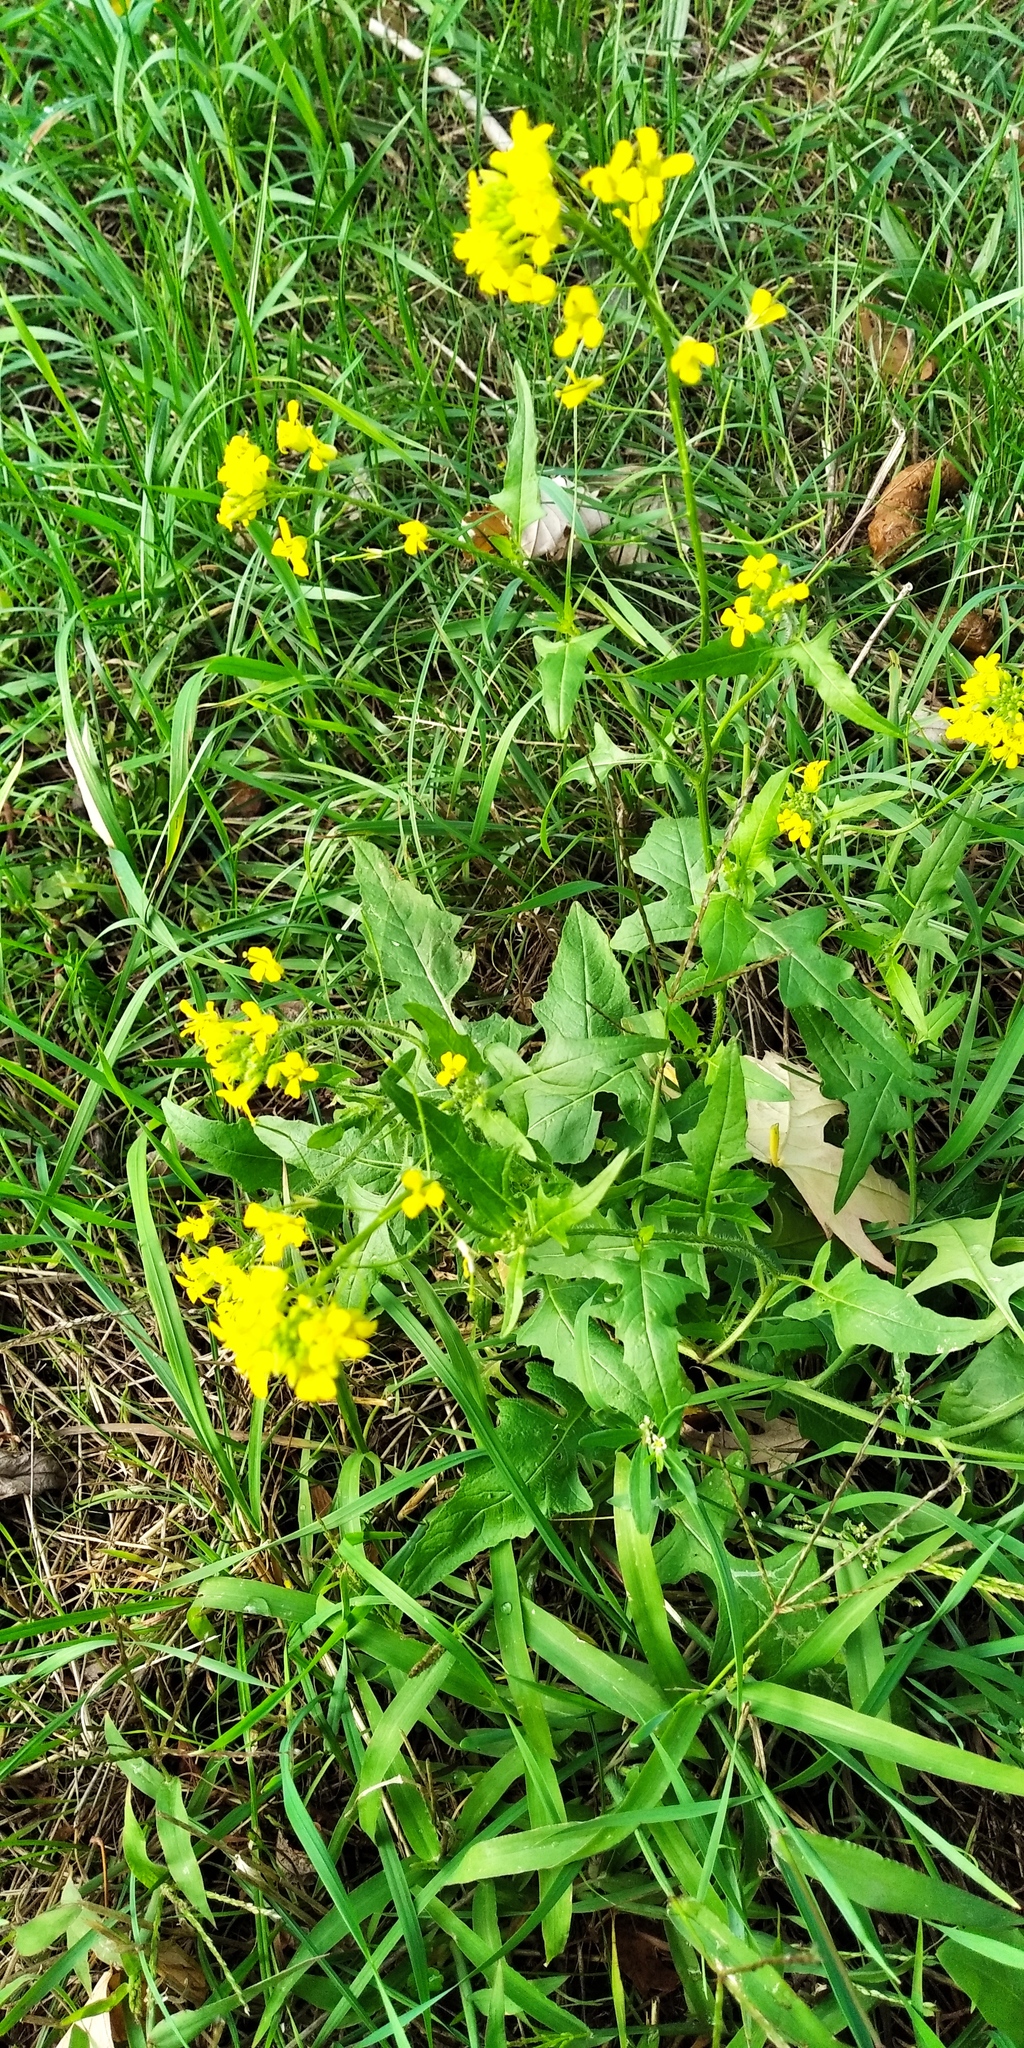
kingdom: Plantae
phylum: Tracheophyta
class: Magnoliopsida
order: Brassicales
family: Brassicaceae
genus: Sisymbrium
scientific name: Sisymbrium loeselii
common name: False london-rocket
